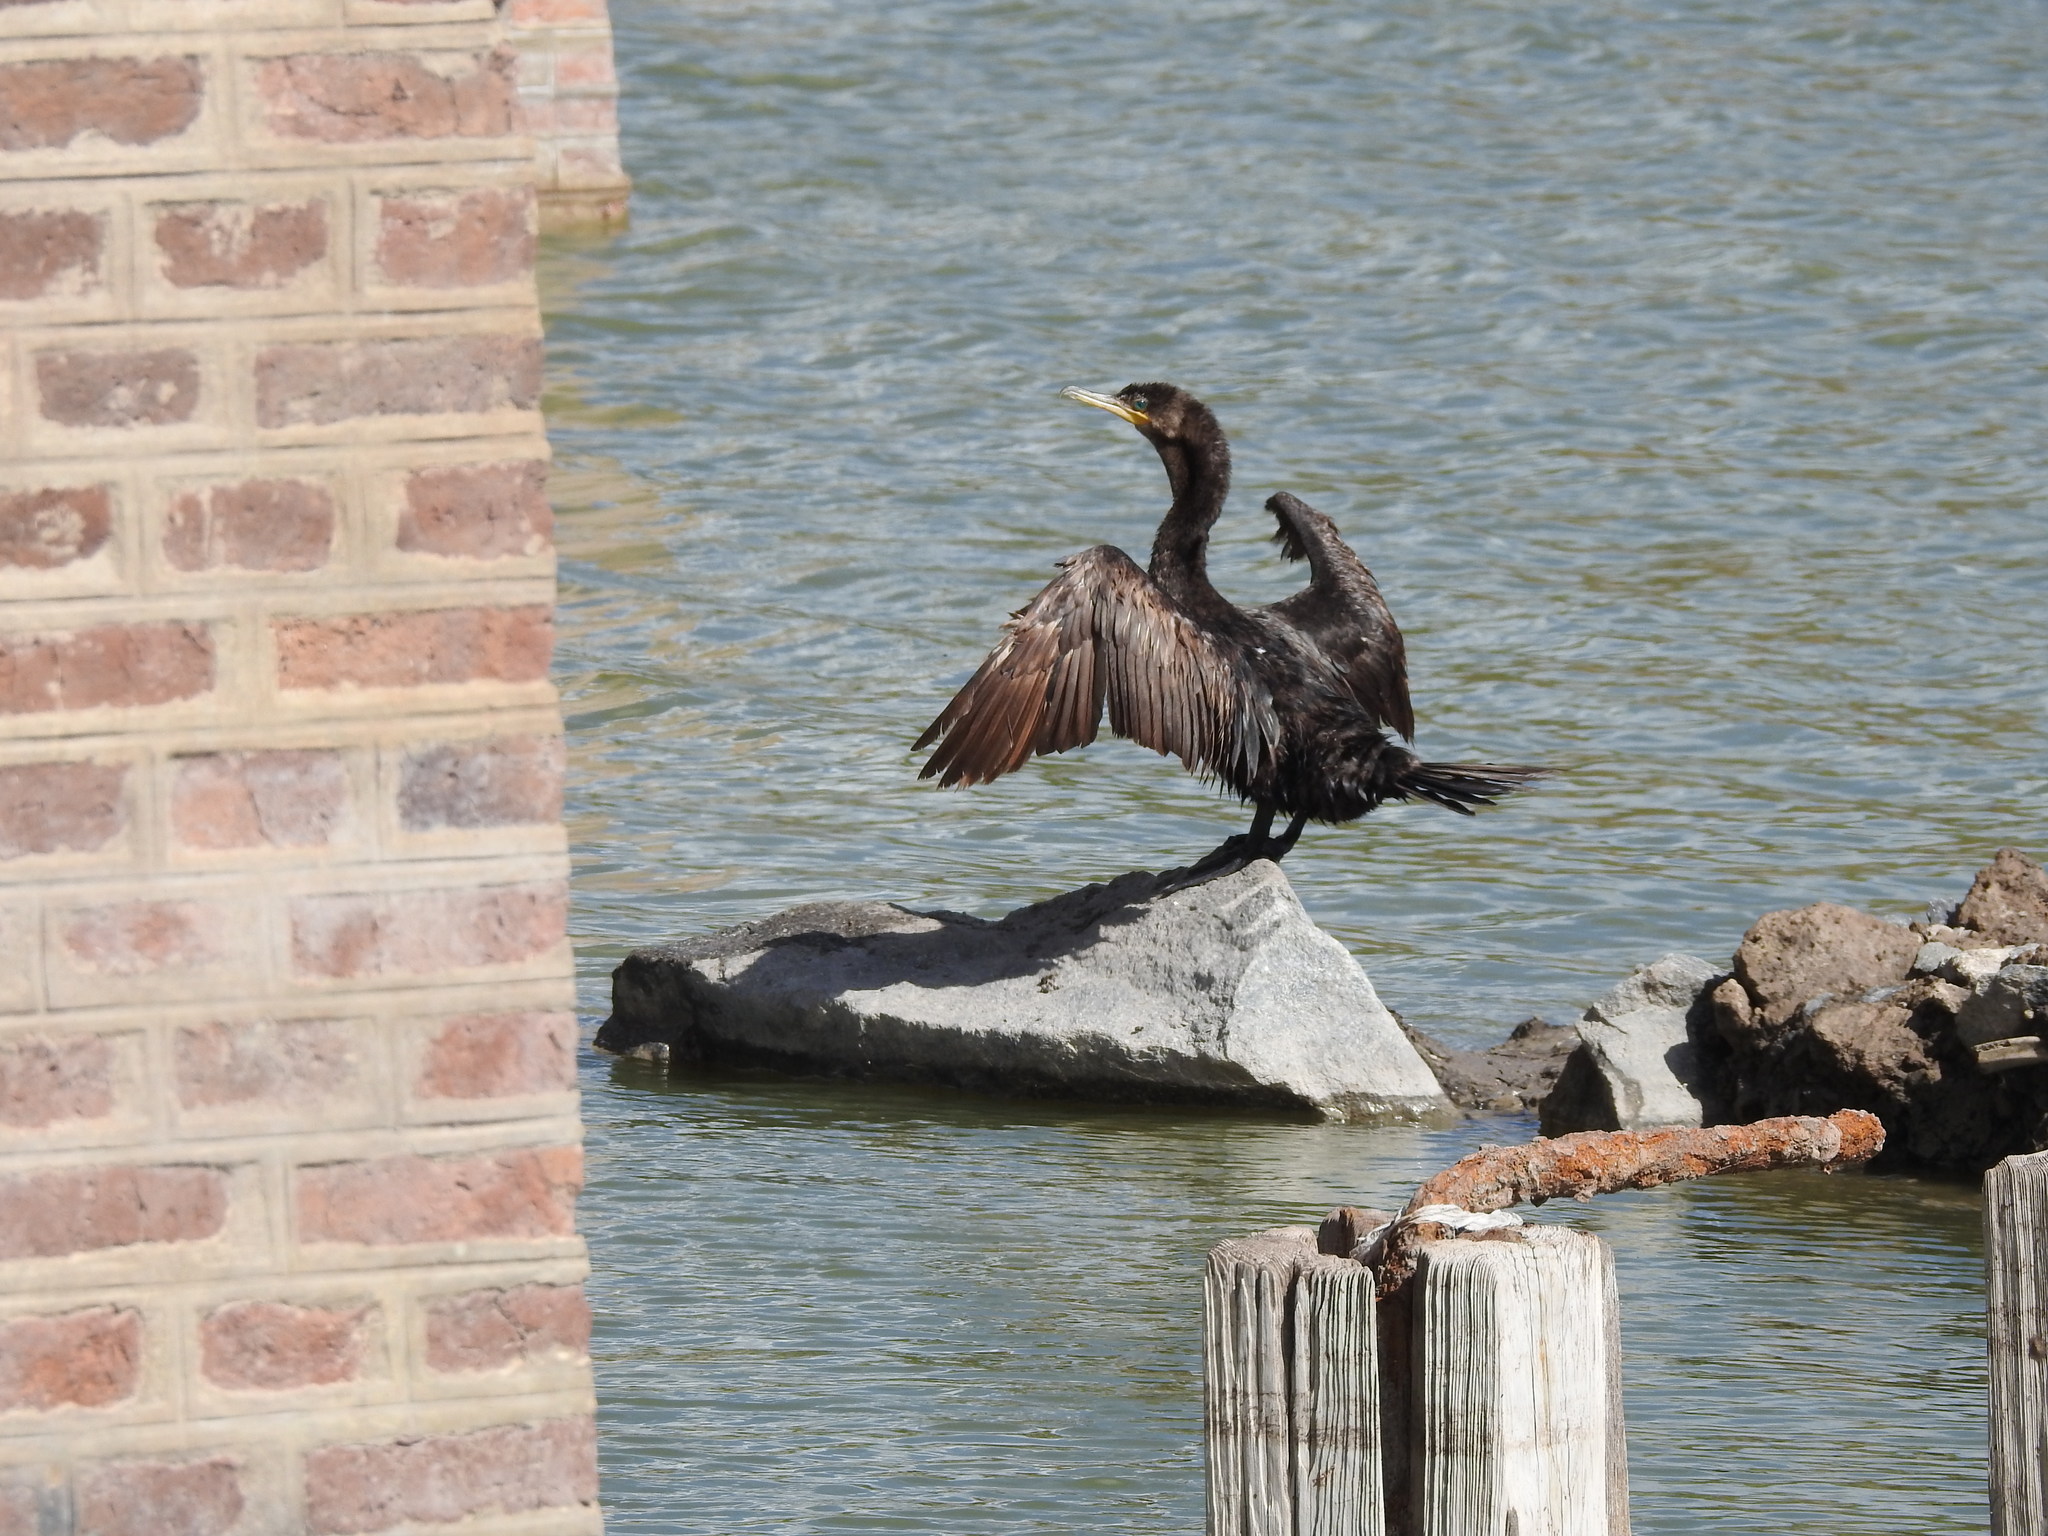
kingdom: Animalia
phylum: Chordata
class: Aves
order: Suliformes
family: Phalacrocoracidae
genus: Phalacrocorax
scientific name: Phalacrocorax brasilianus
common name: Neotropic cormorant
